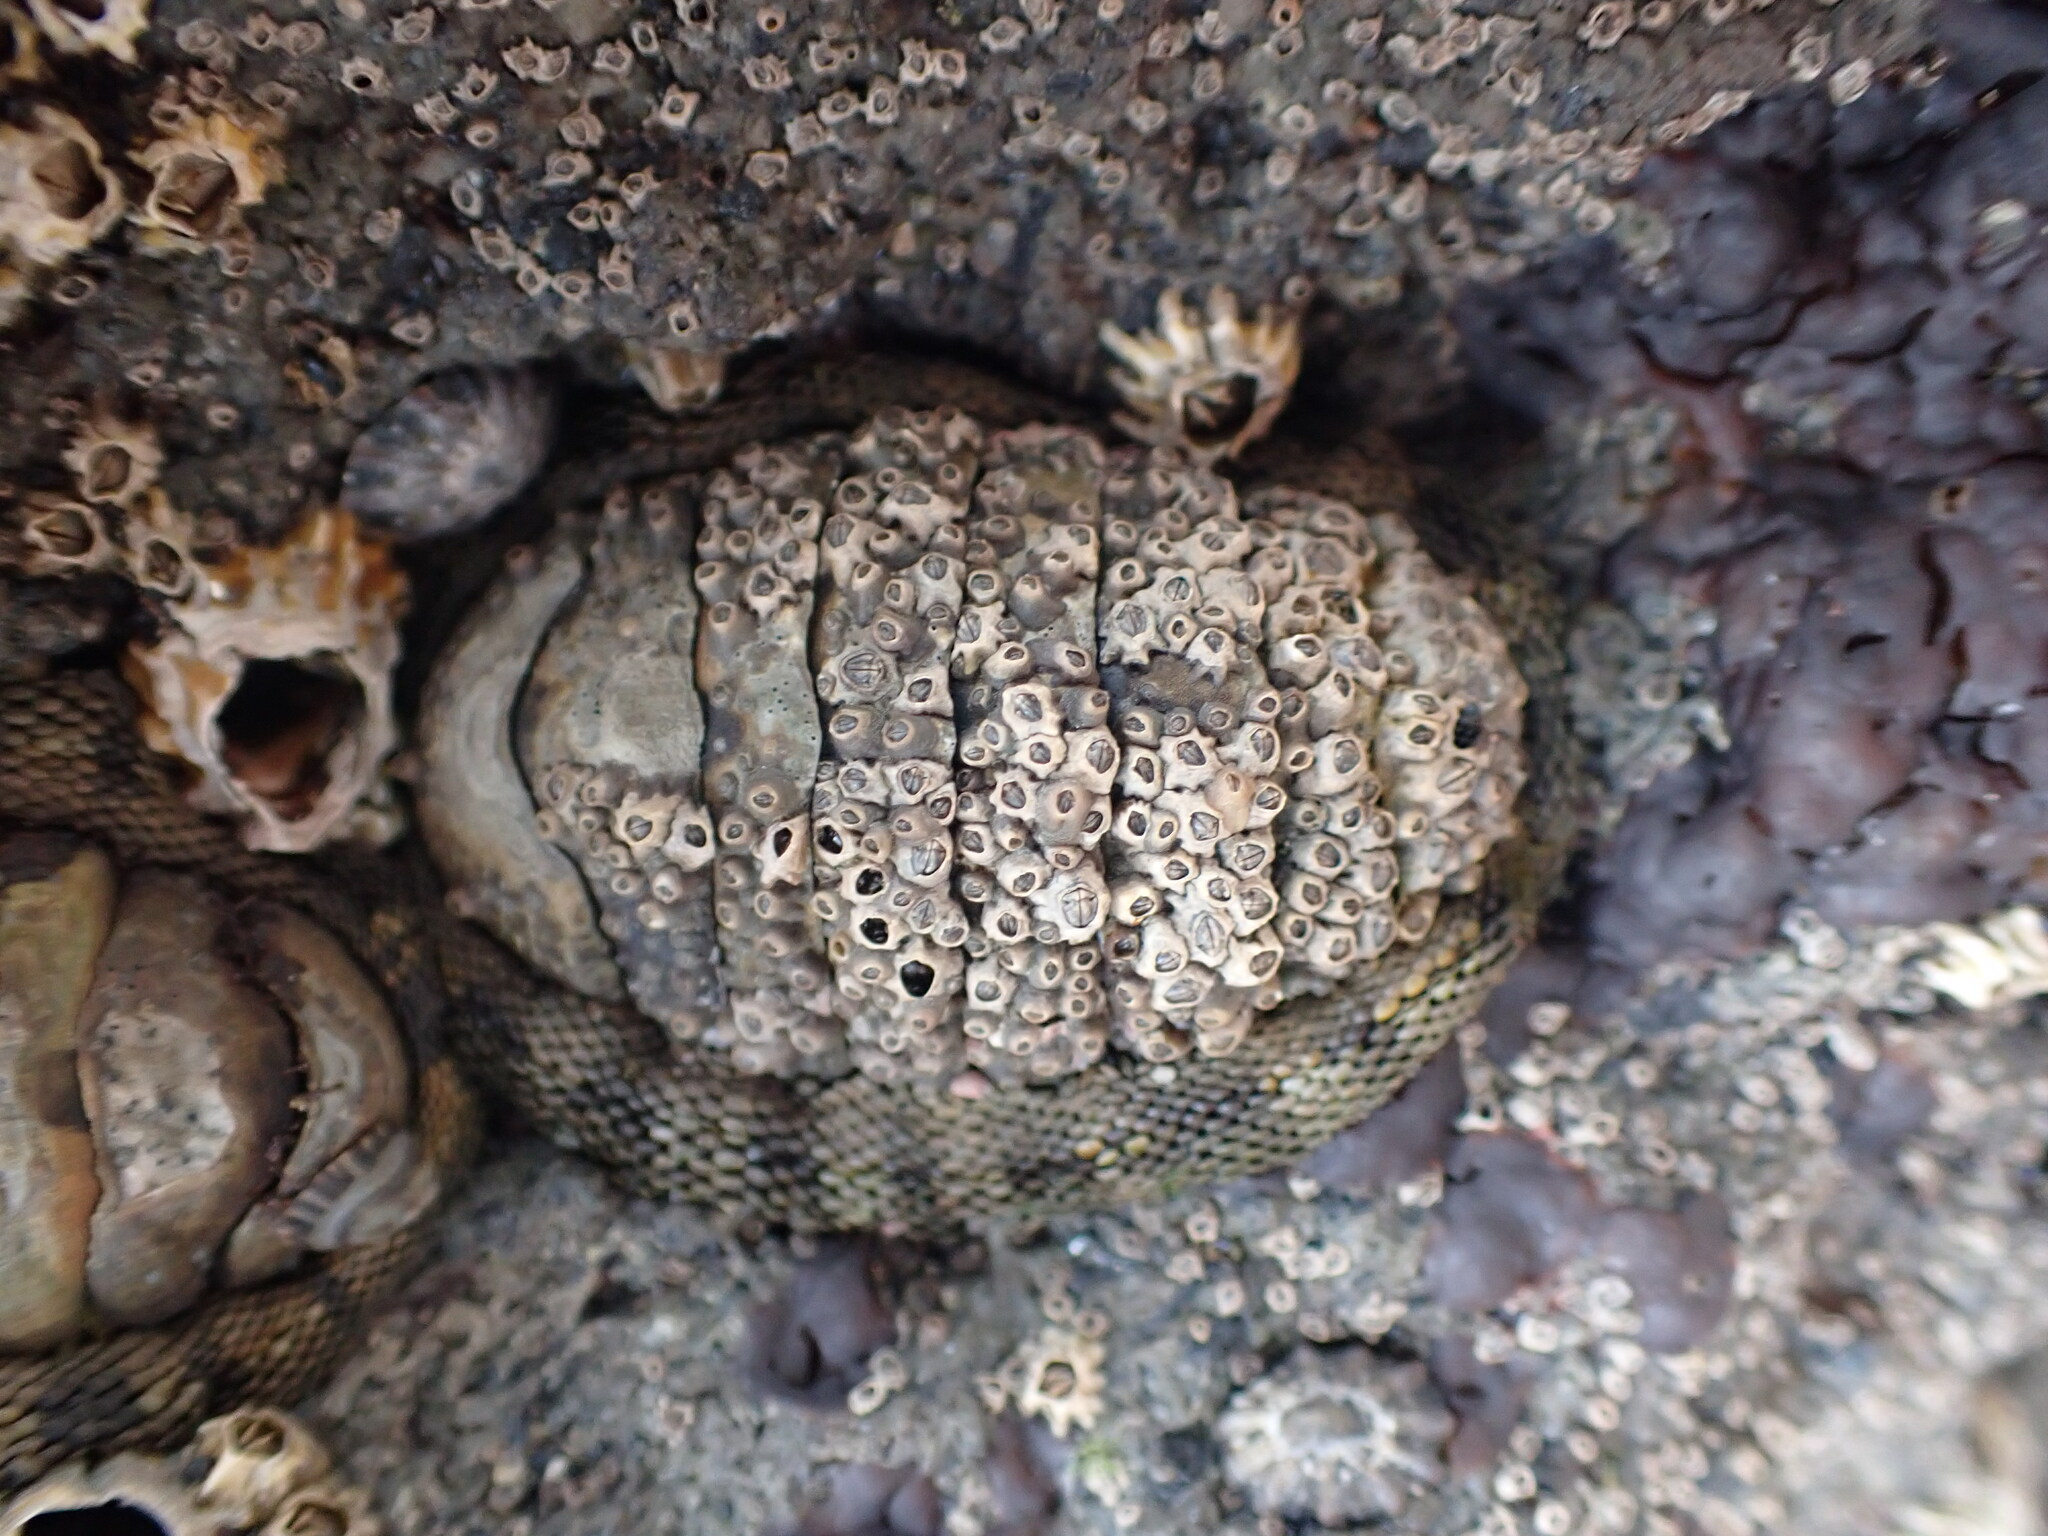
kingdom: Animalia
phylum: Mollusca
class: Polyplacophora
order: Chitonida
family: Chitonidae
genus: Sypharochiton
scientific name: Sypharochiton pelliserpentis
